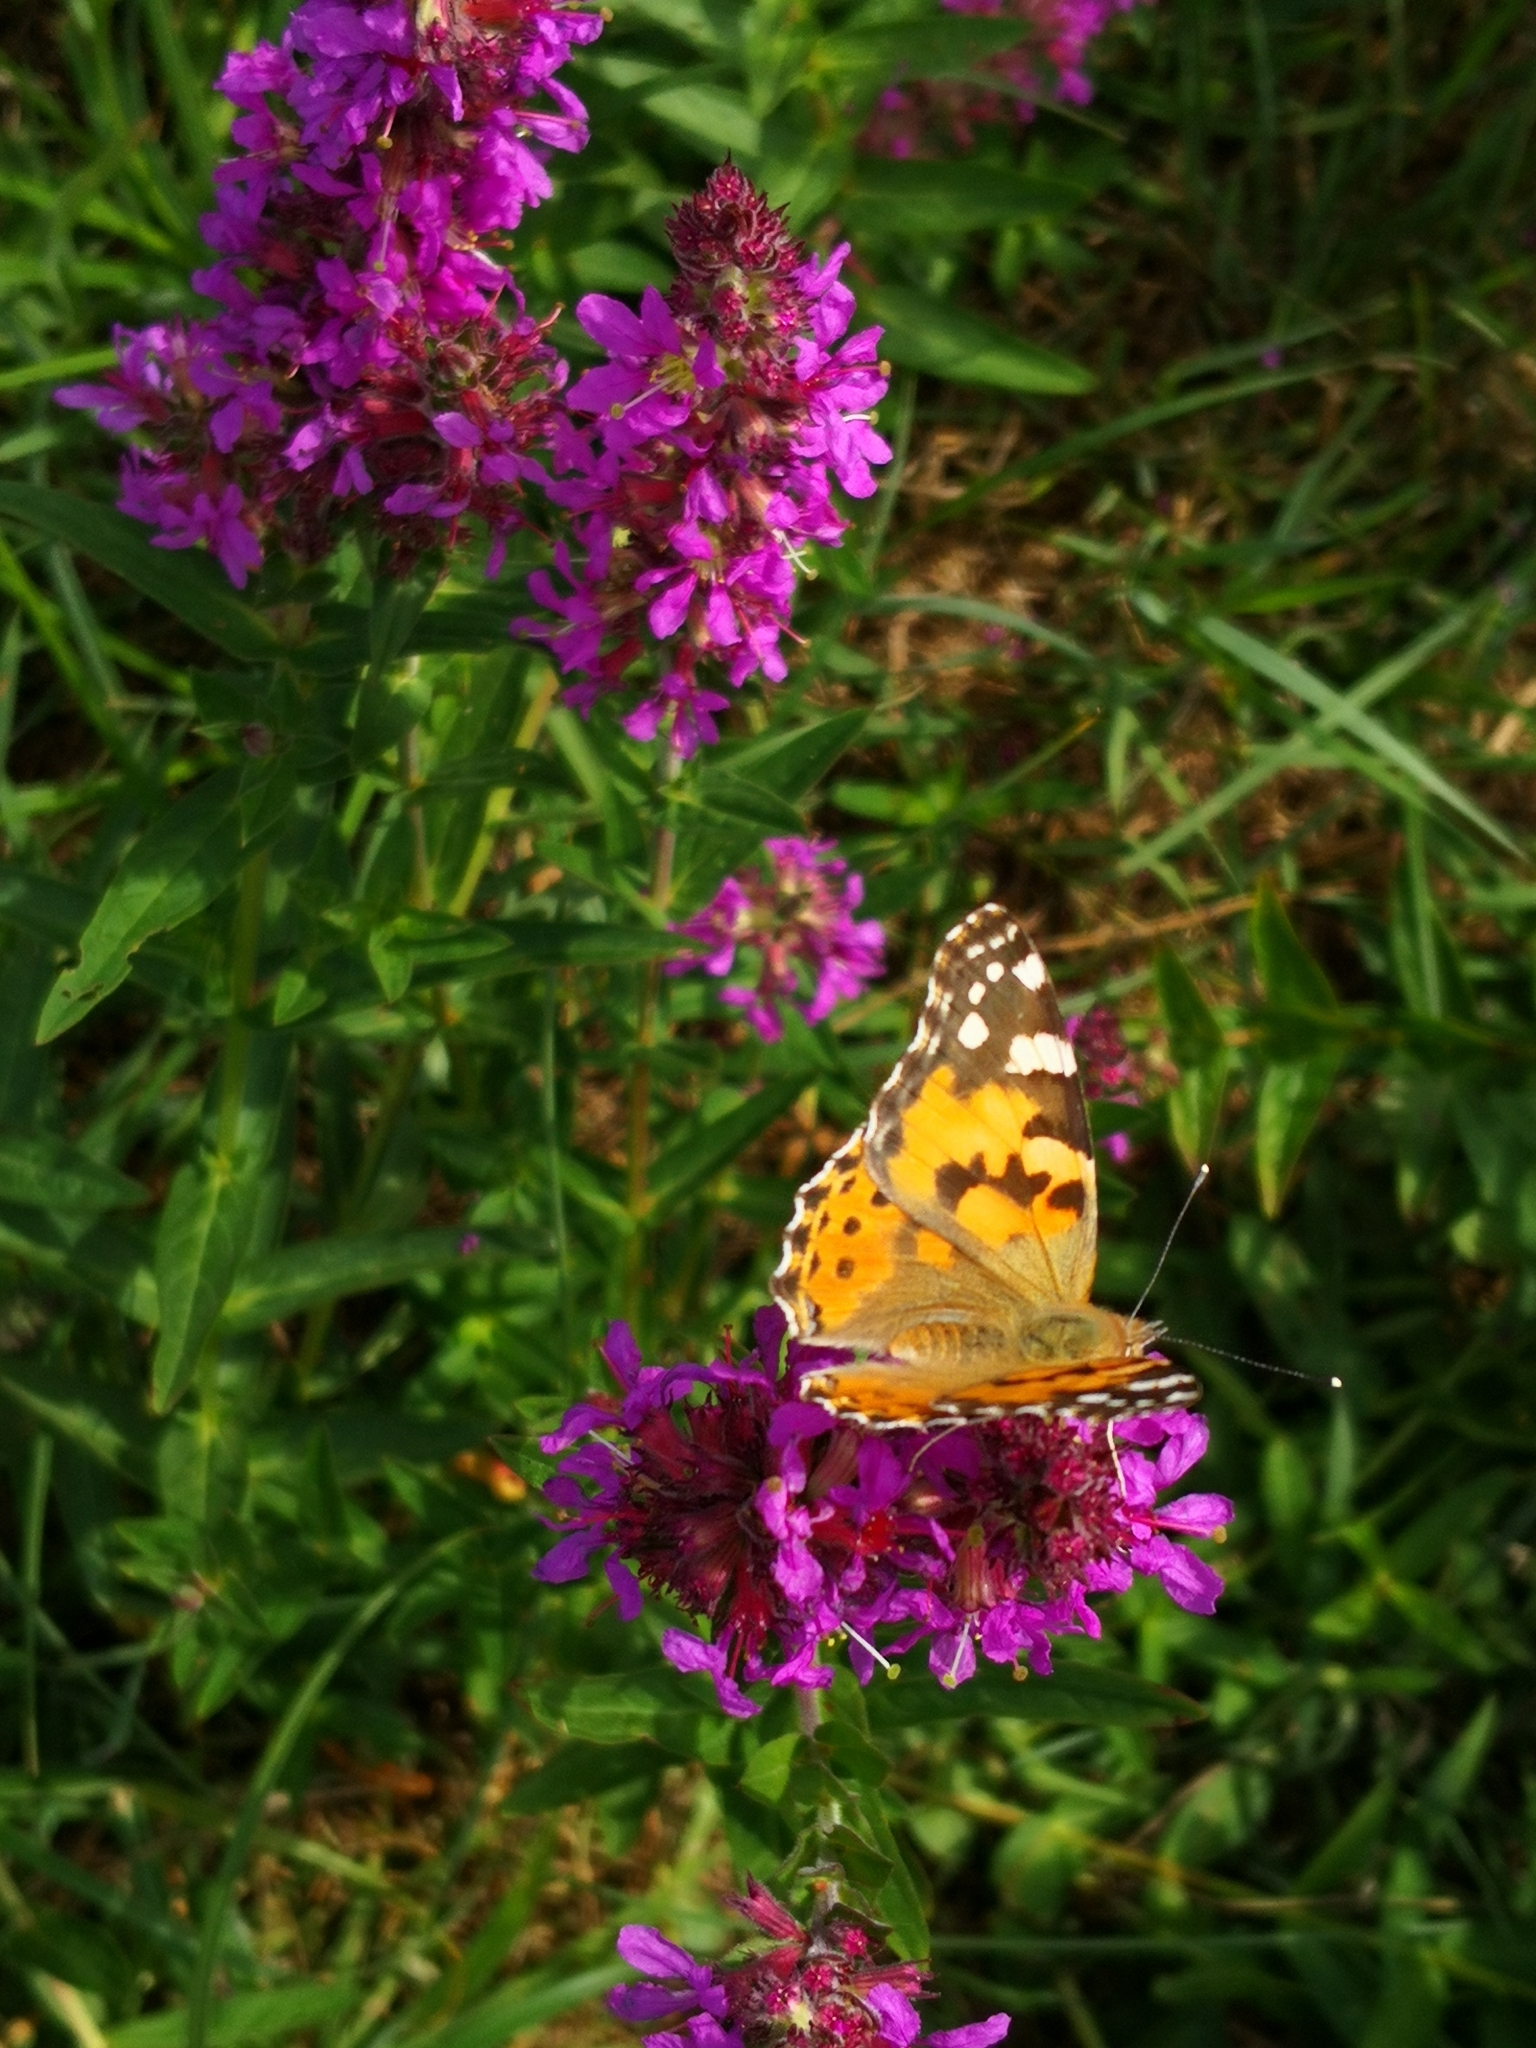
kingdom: Animalia
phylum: Arthropoda
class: Insecta
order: Lepidoptera
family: Nymphalidae
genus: Vanessa
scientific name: Vanessa cardui
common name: Painted lady
